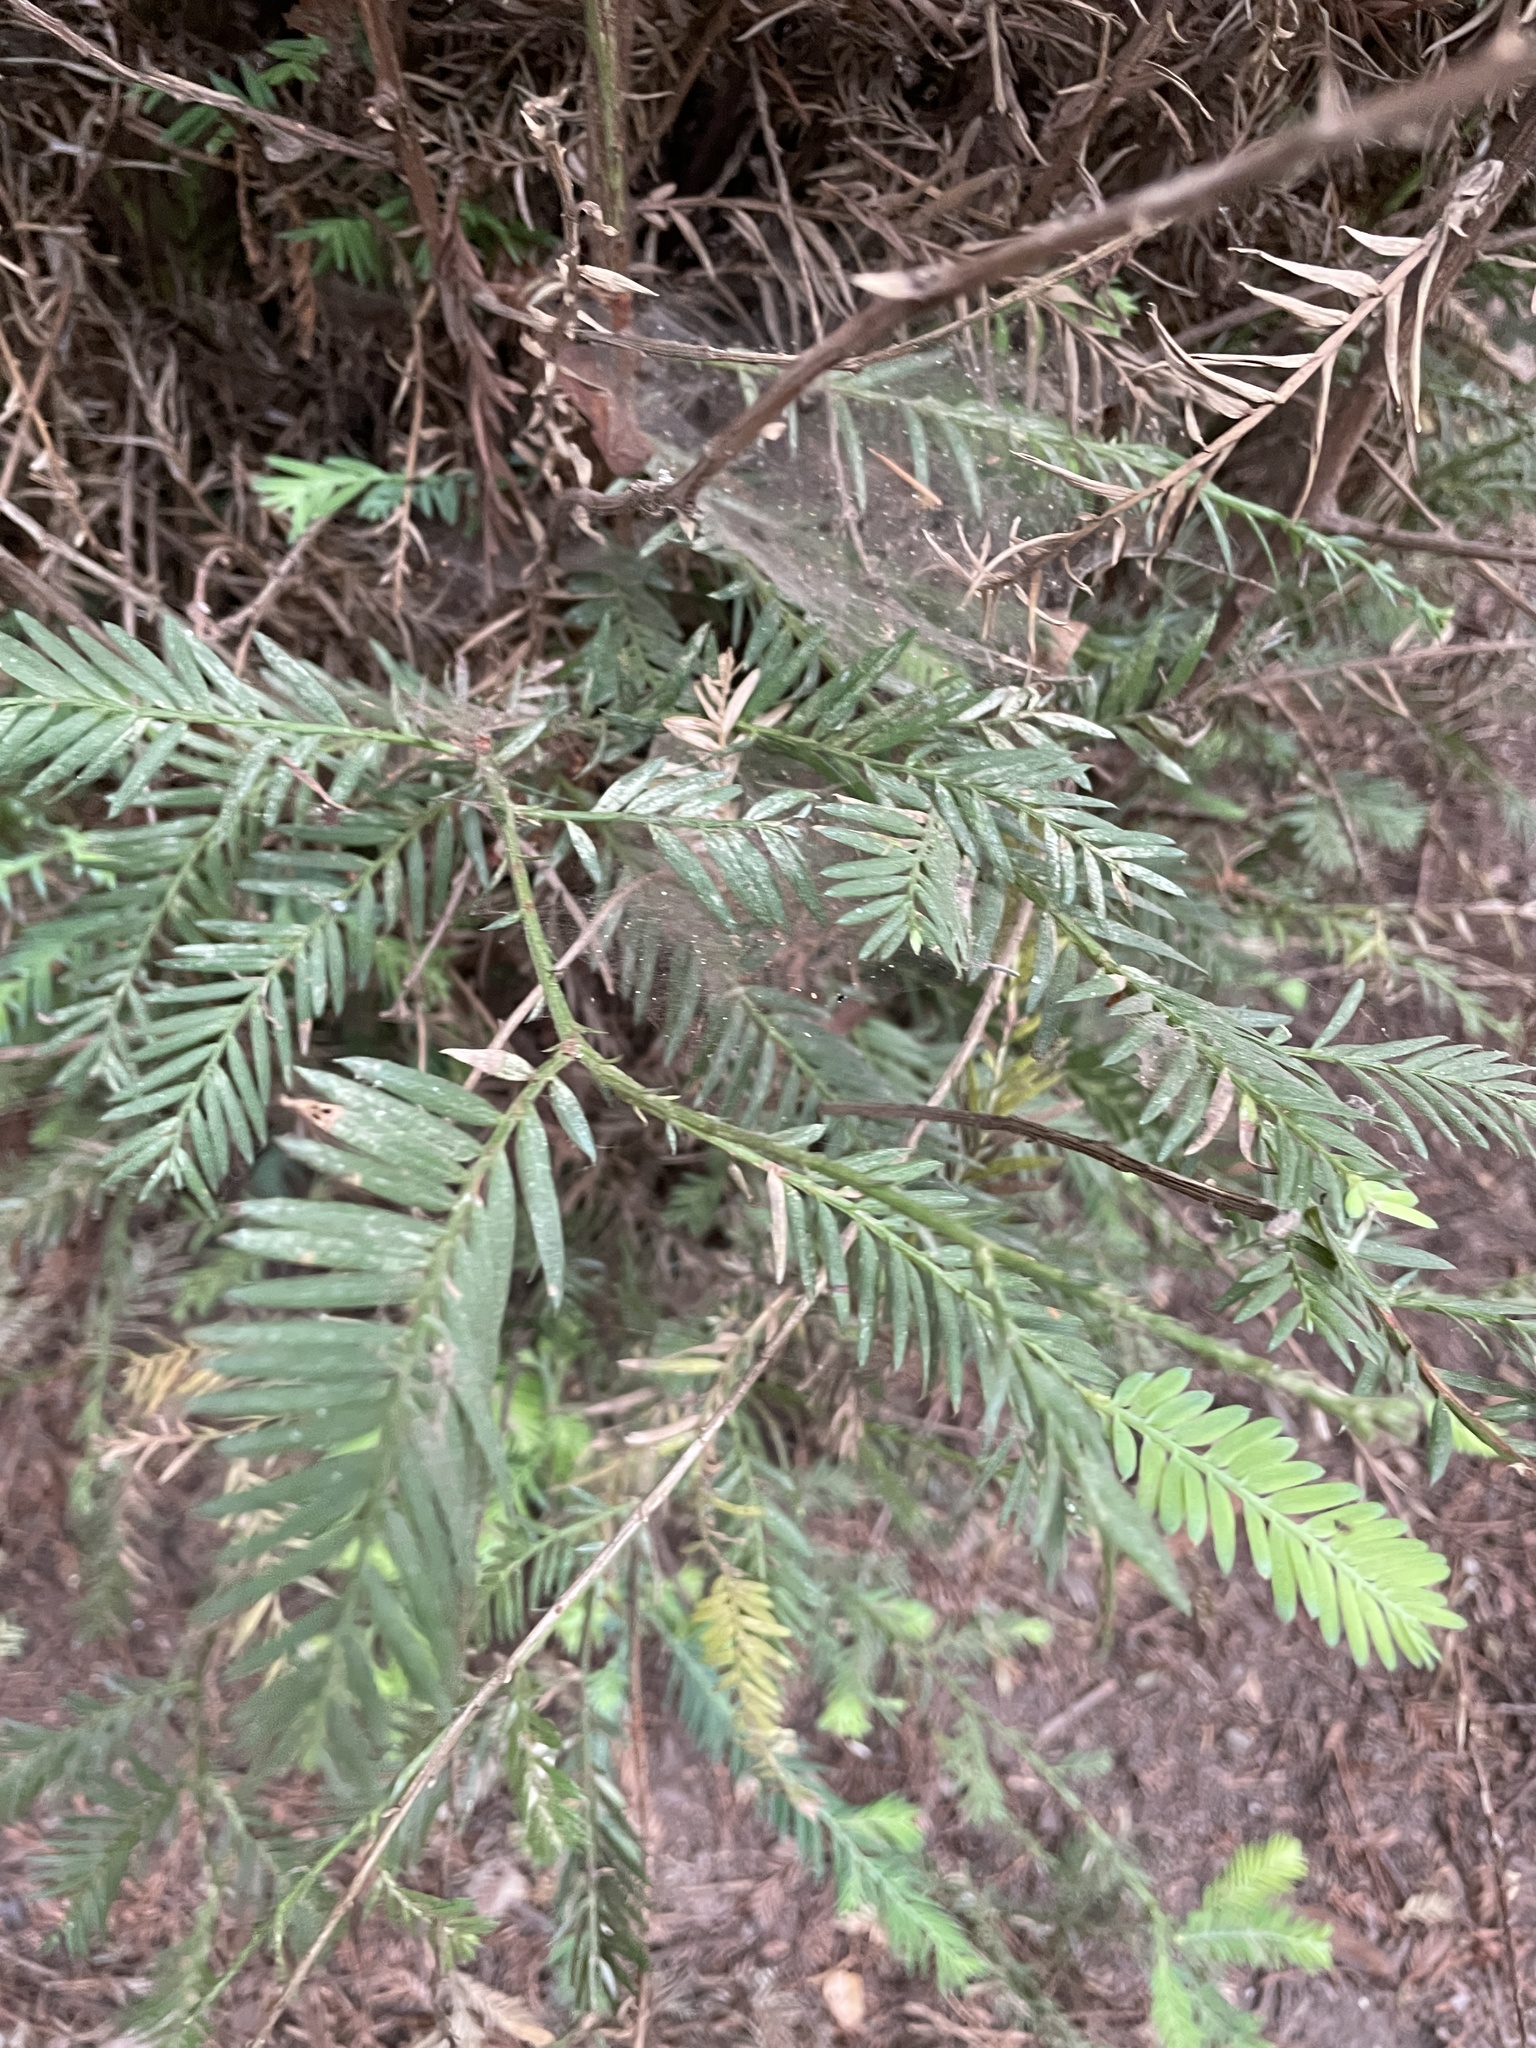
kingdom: Plantae
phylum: Tracheophyta
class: Pinopsida
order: Pinales
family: Cupressaceae
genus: Sequoia
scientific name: Sequoia sempervirens
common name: Coast redwood
